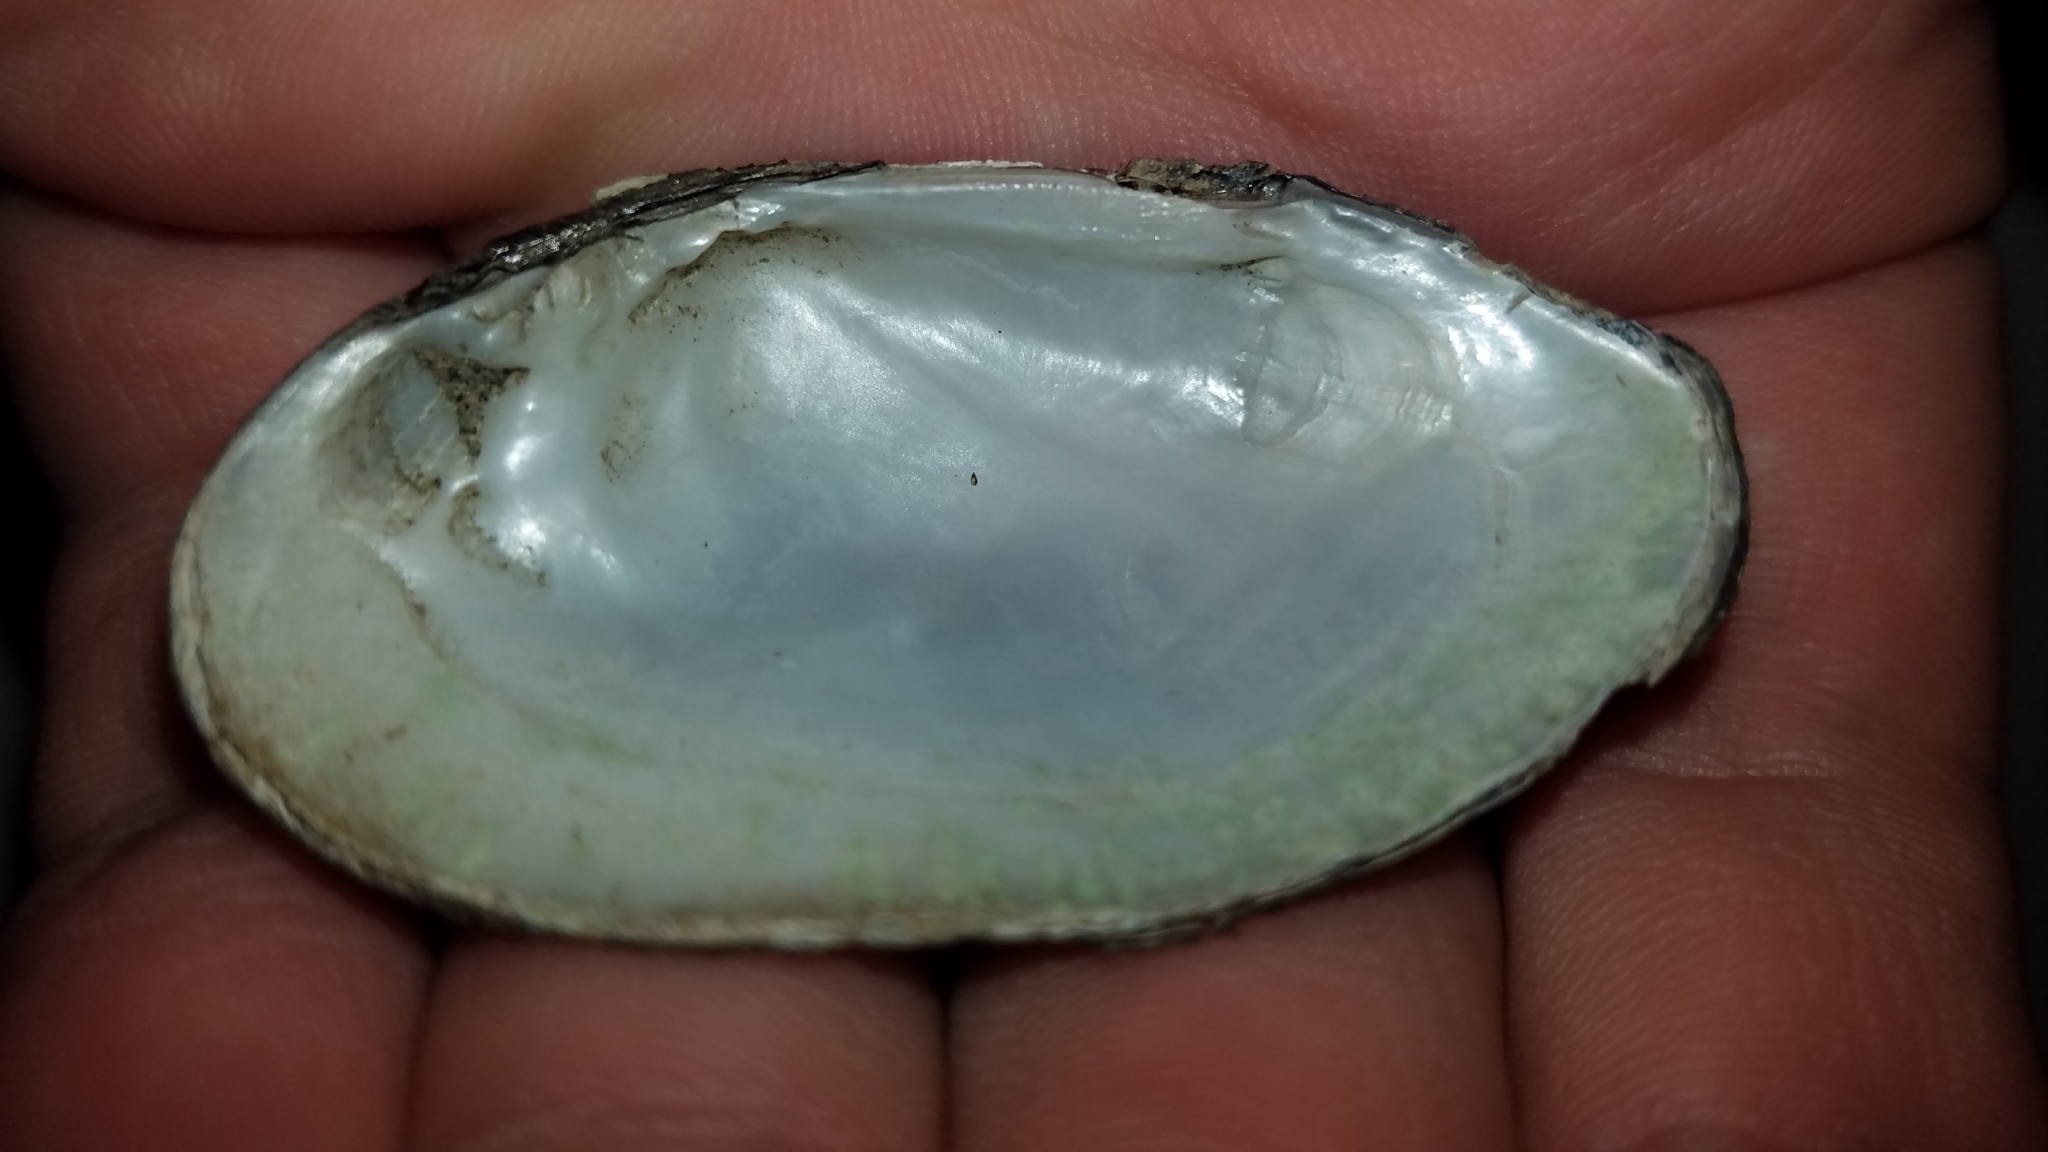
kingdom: Animalia
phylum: Mollusca
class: Bivalvia
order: Unionida
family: Unionidae
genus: Venustaconcha
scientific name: Venustaconcha ellipsiformis
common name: Ellipse
